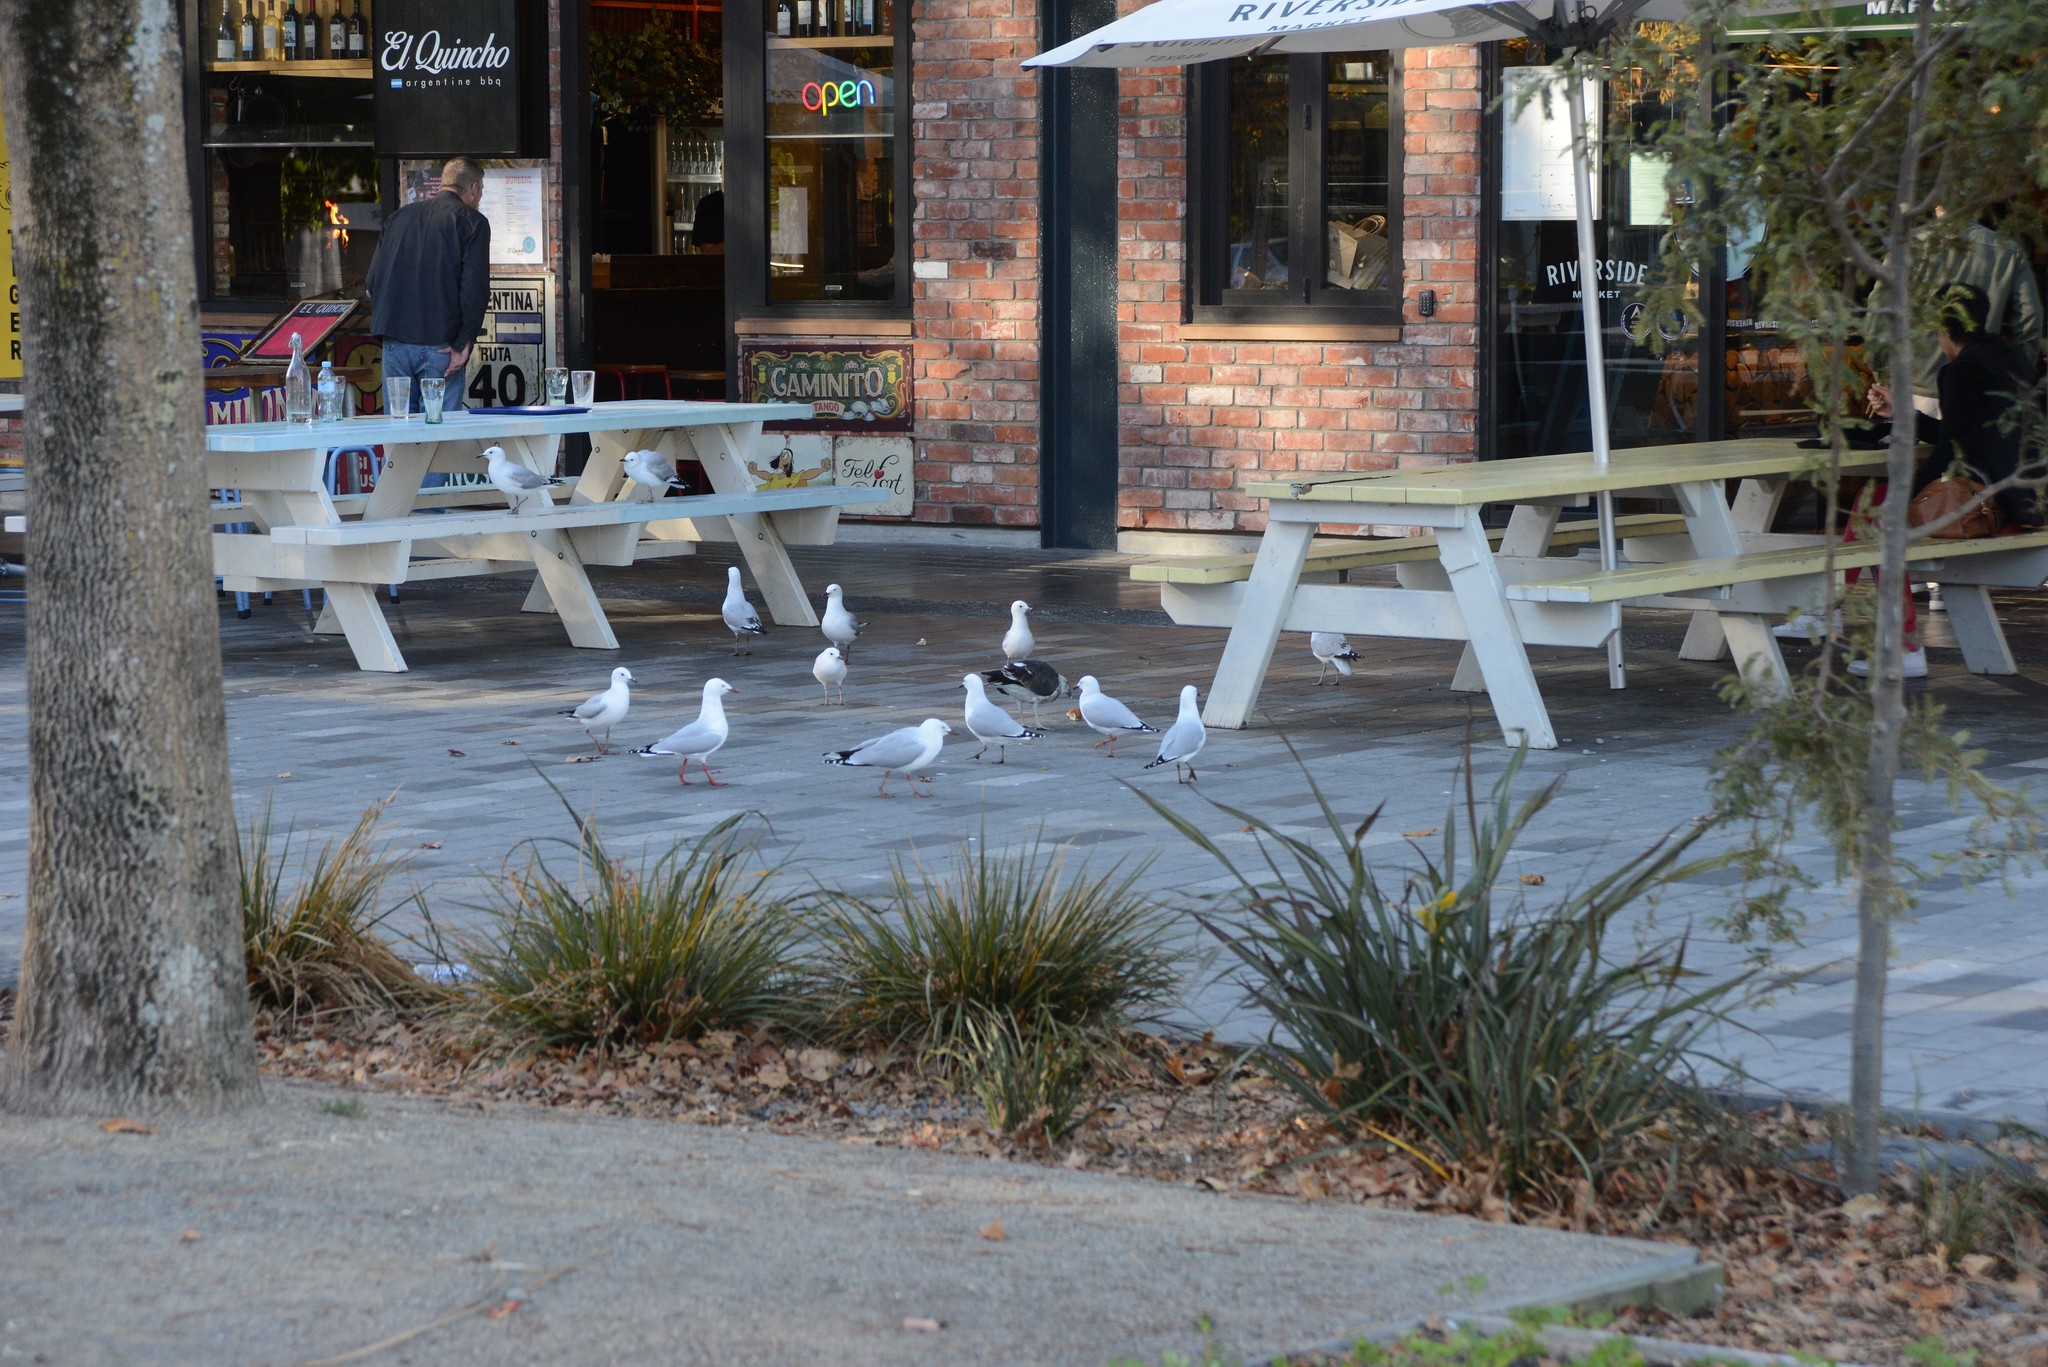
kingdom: Animalia
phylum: Chordata
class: Aves
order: Charadriiformes
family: Laridae
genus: Chroicocephalus
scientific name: Chroicocephalus novaehollandiae
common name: Silver gull
